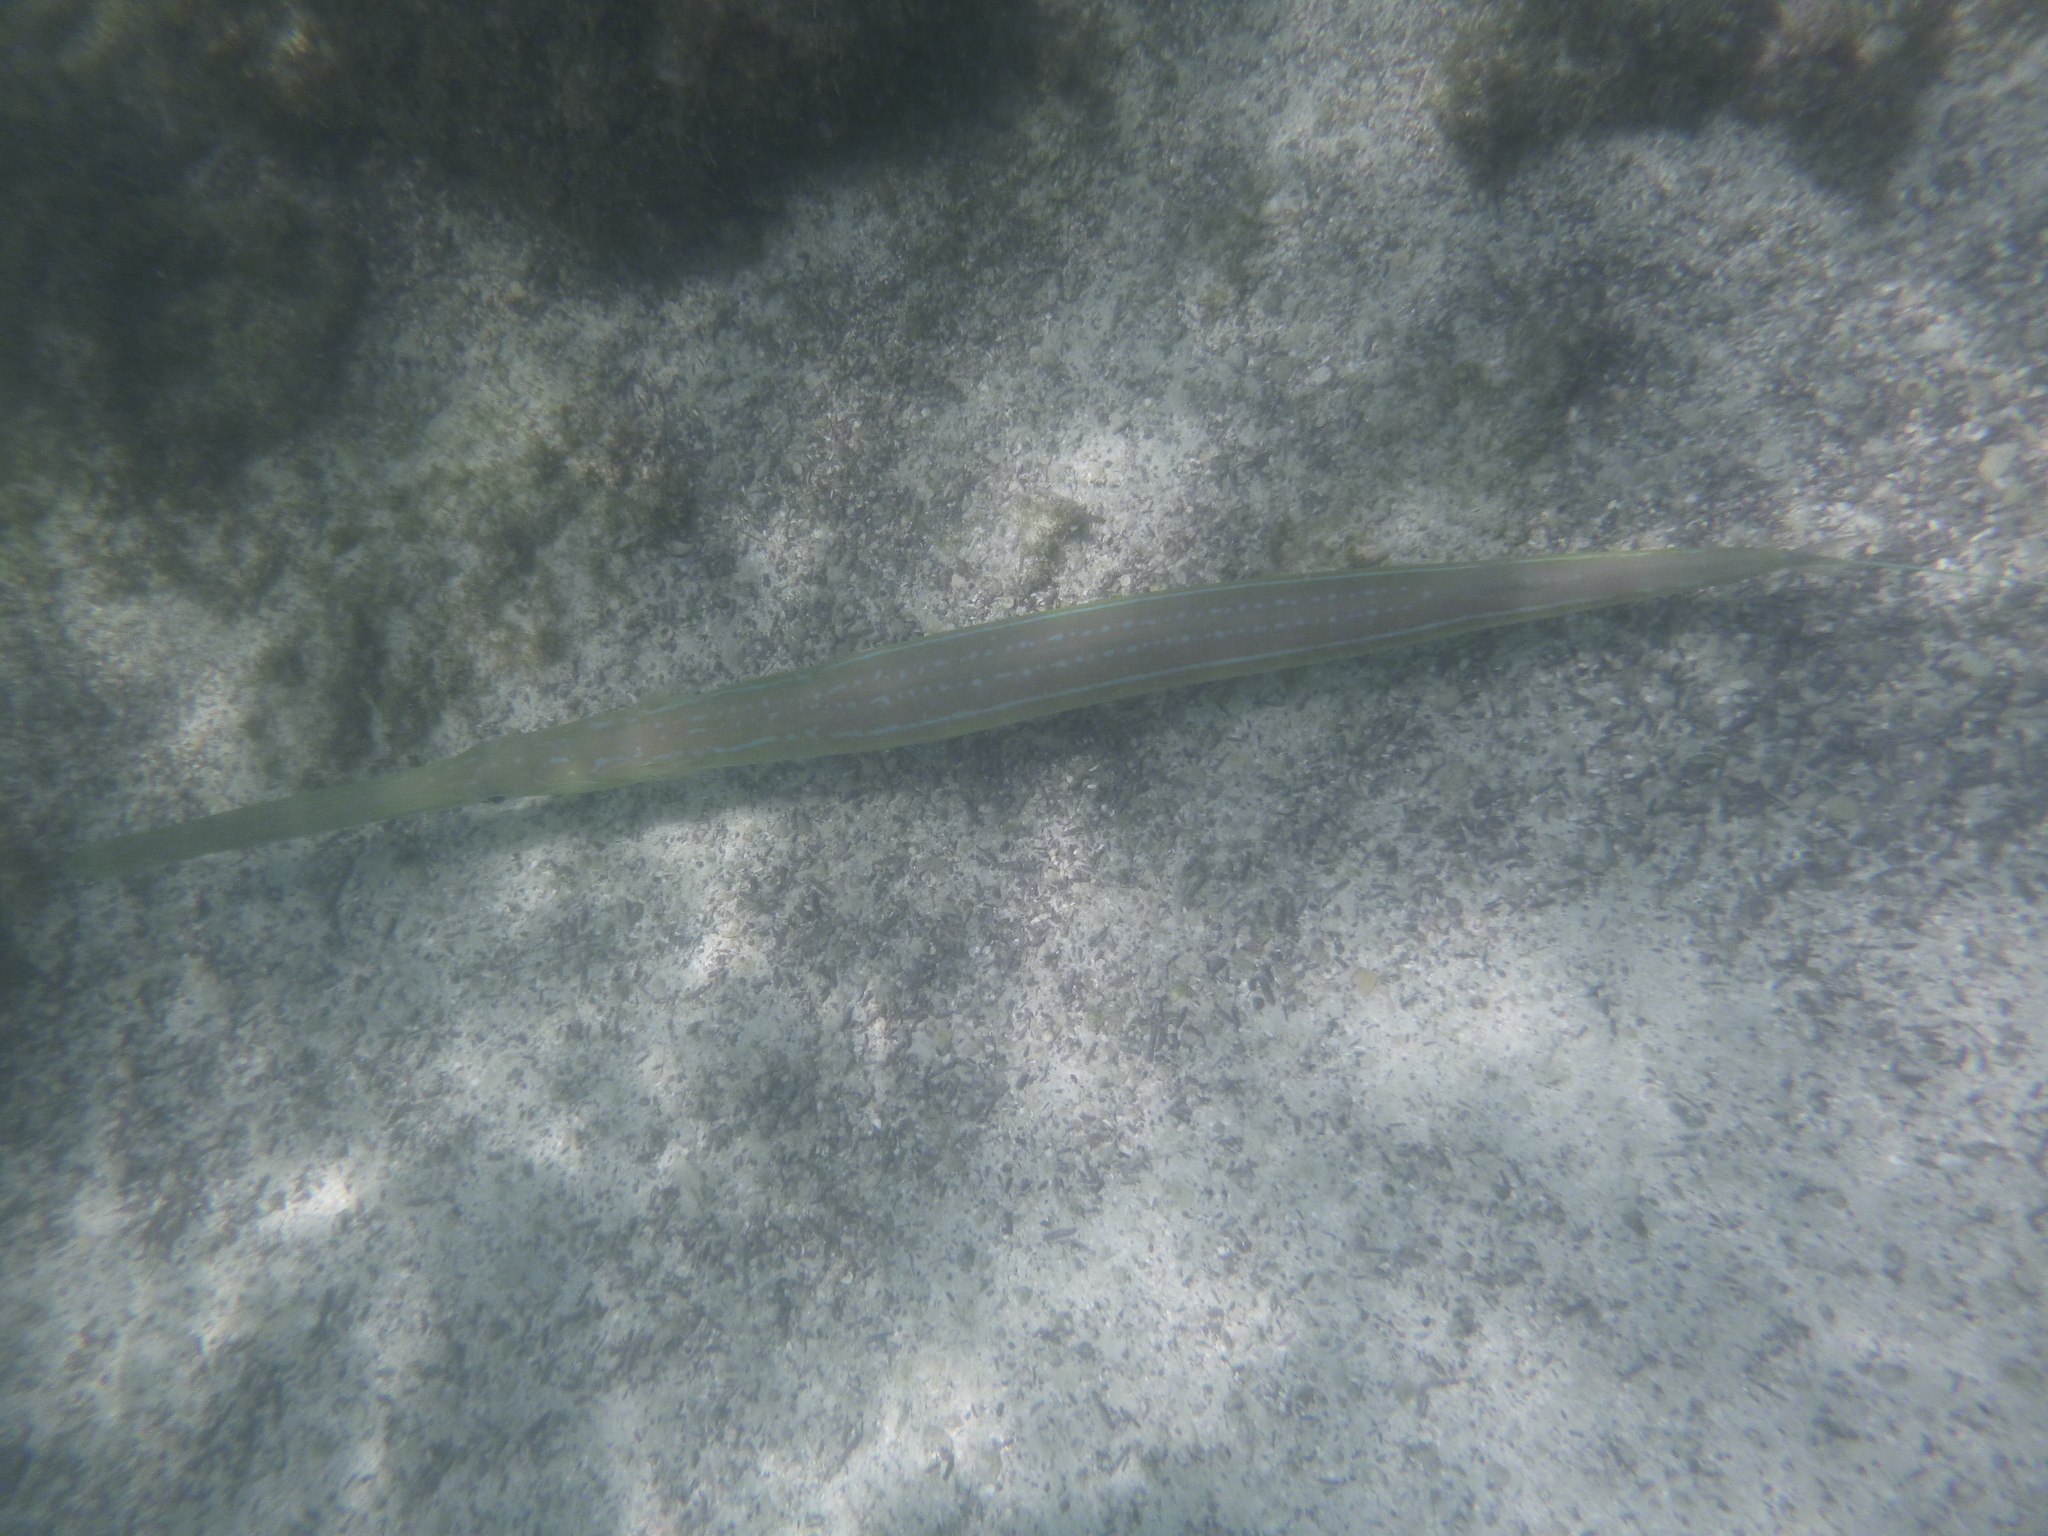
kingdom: Animalia
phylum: Chordata
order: Syngnathiformes
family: Fistulariidae
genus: Fistularia
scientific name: Fistularia commersonii
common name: Bluespotted cornetfish
